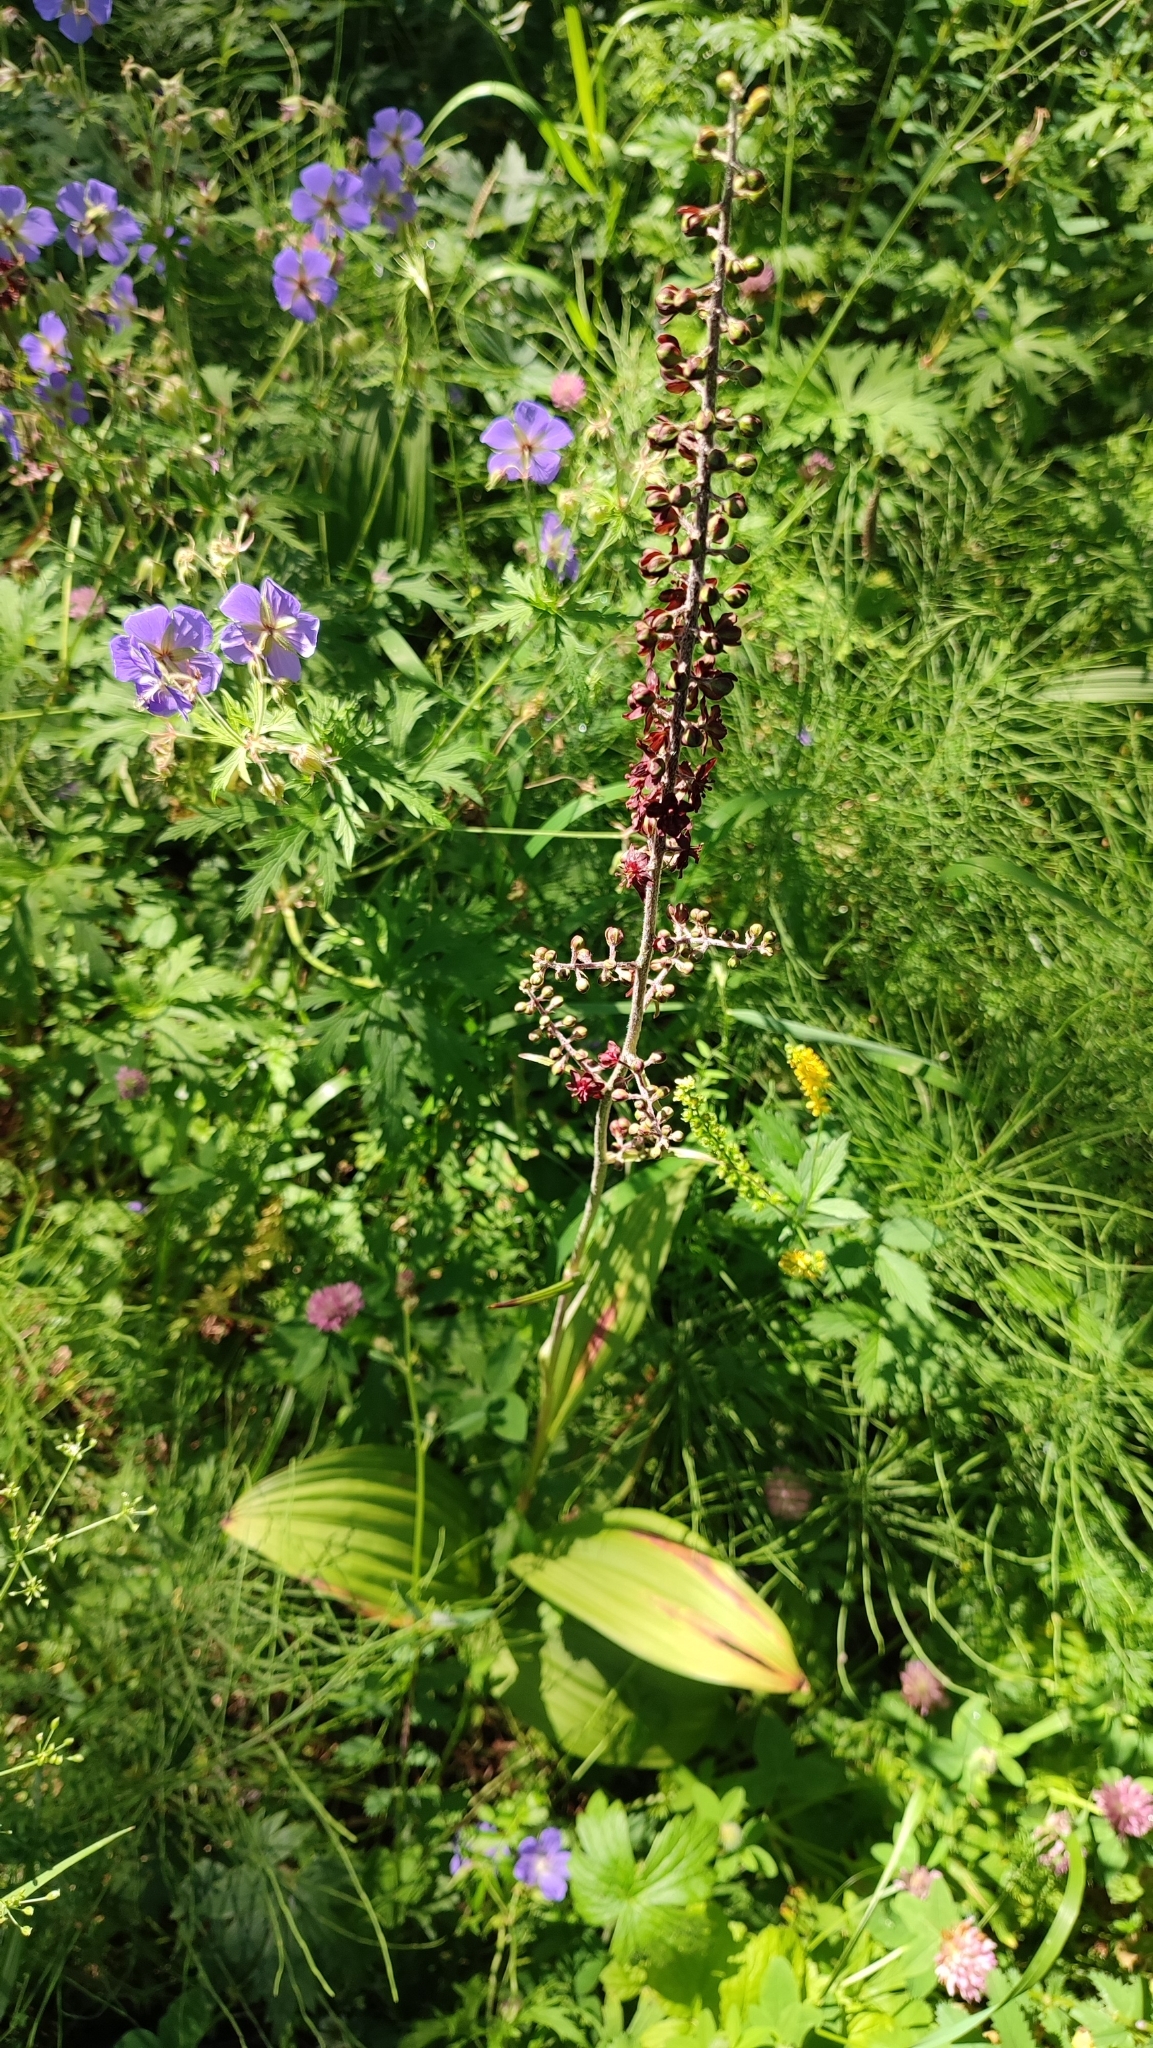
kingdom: Plantae
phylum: Tracheophyta
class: Liliopsida
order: Liliales
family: Melanthiaceae
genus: Veratrum
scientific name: Veratrum nigrum
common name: Black veratrum
